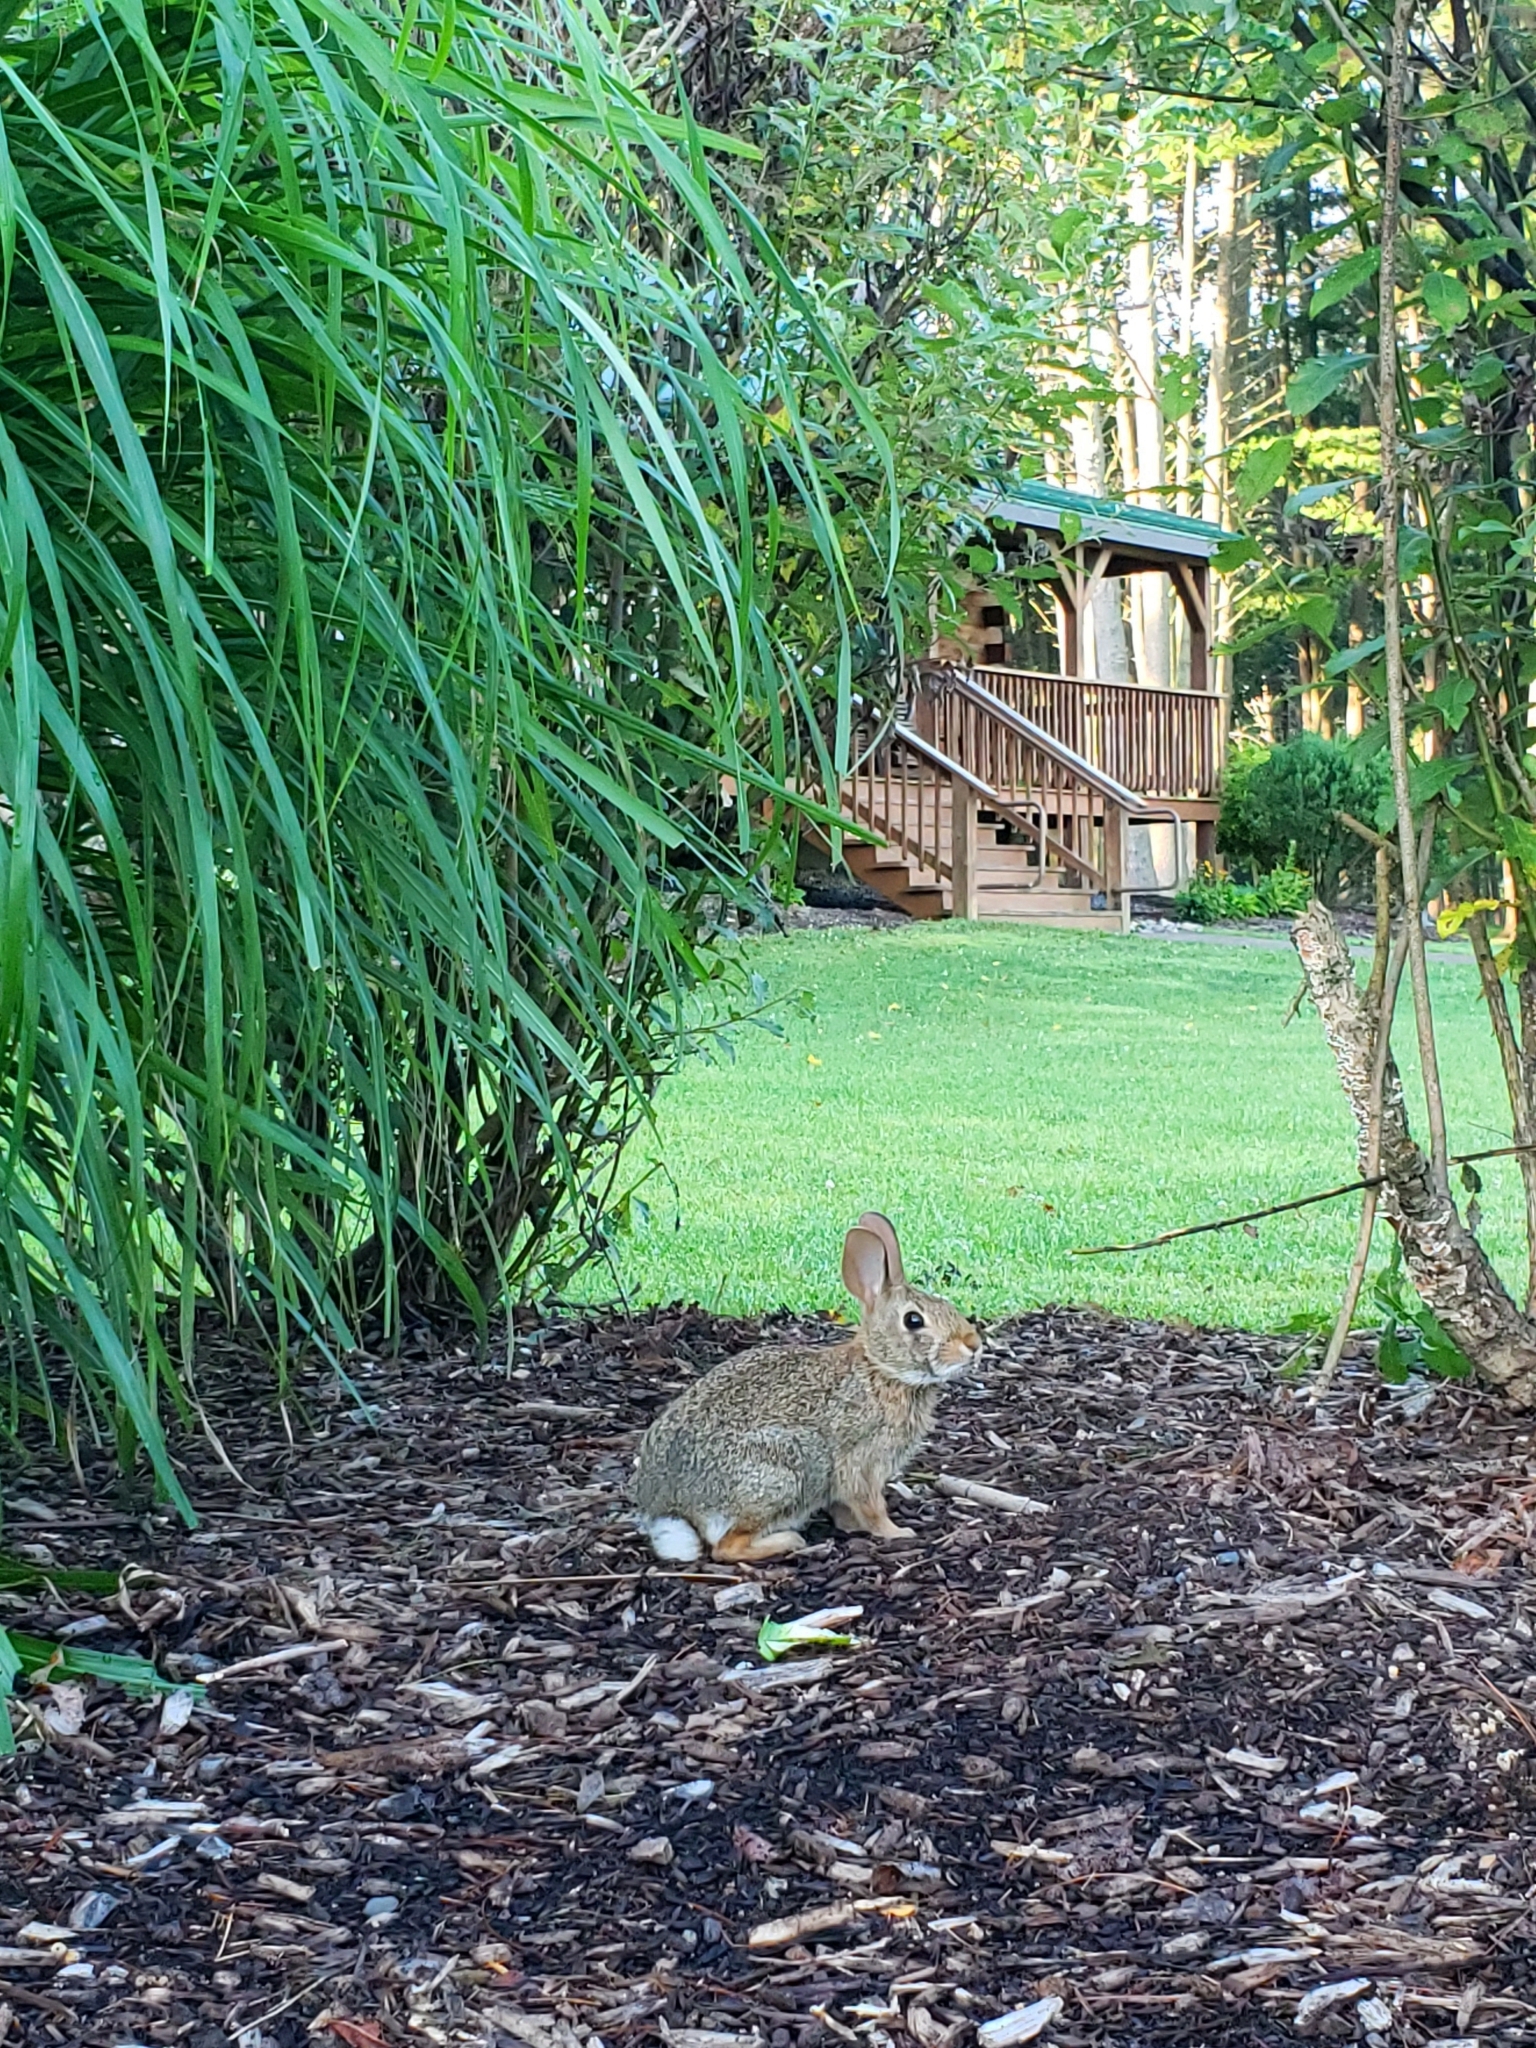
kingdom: Animalia
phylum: Chordata
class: Mammalia
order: Lagomorpha
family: Leporidae
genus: Sylvilagus
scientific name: Sylvilagus floridanus
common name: Eastern cottontail
